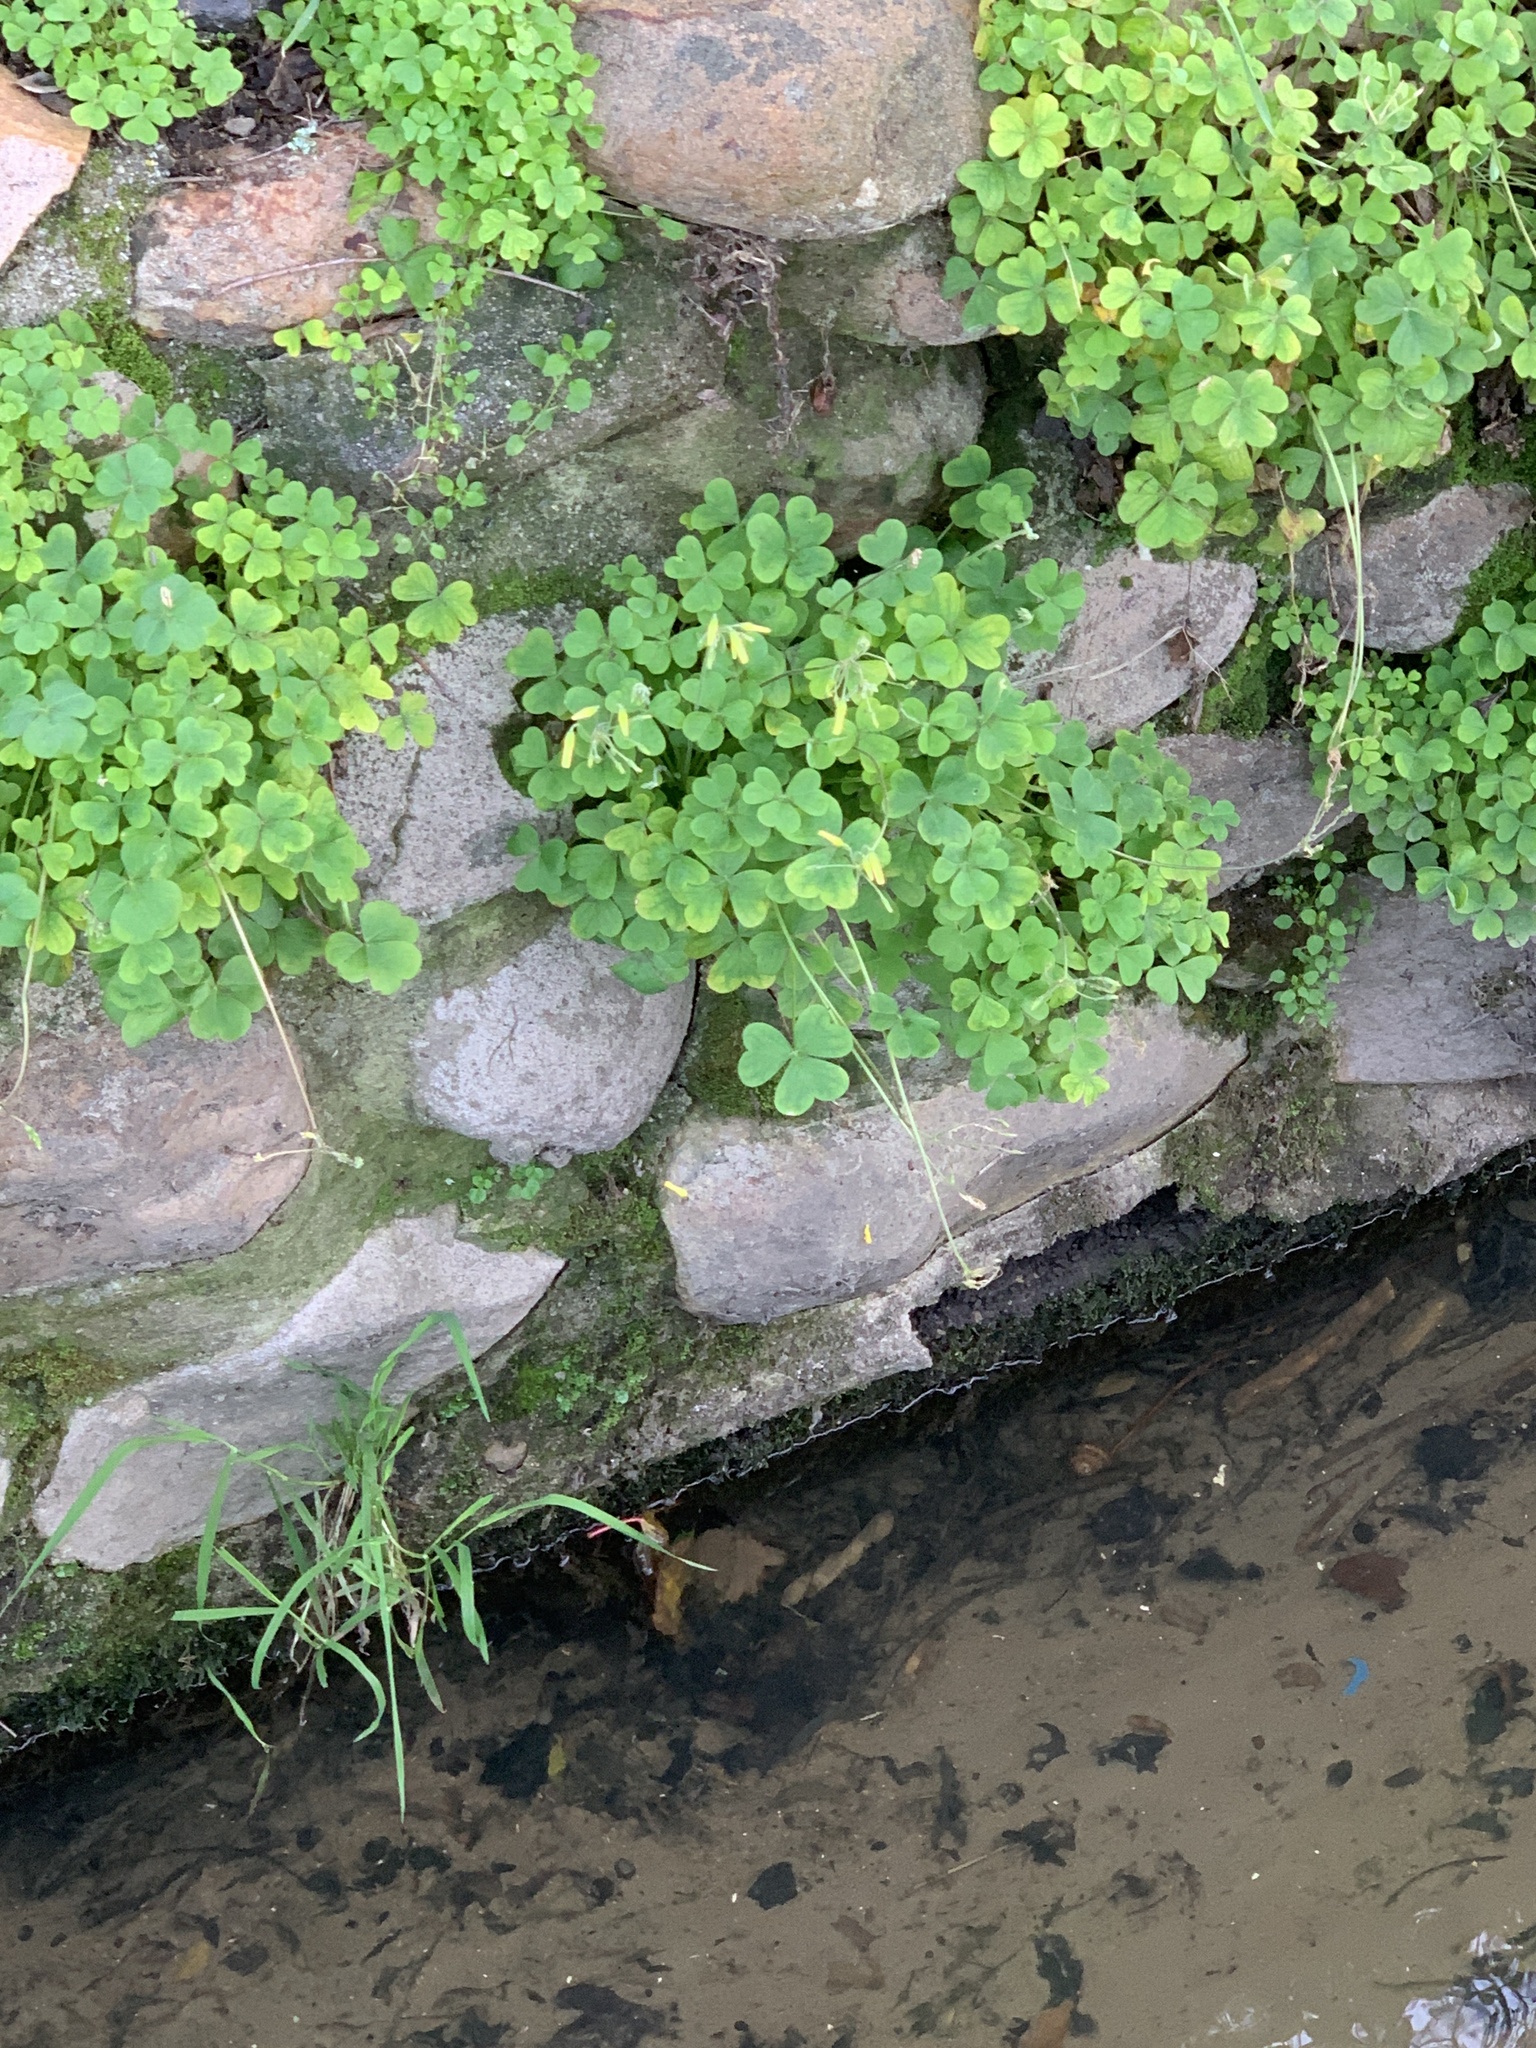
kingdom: Plantae
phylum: Tracheophyta
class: Magnoliopsida
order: Oxalidales
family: Oxalidaceae
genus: Oxalis
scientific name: Oxalis pes-caprae
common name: Bermuda-buttercup
